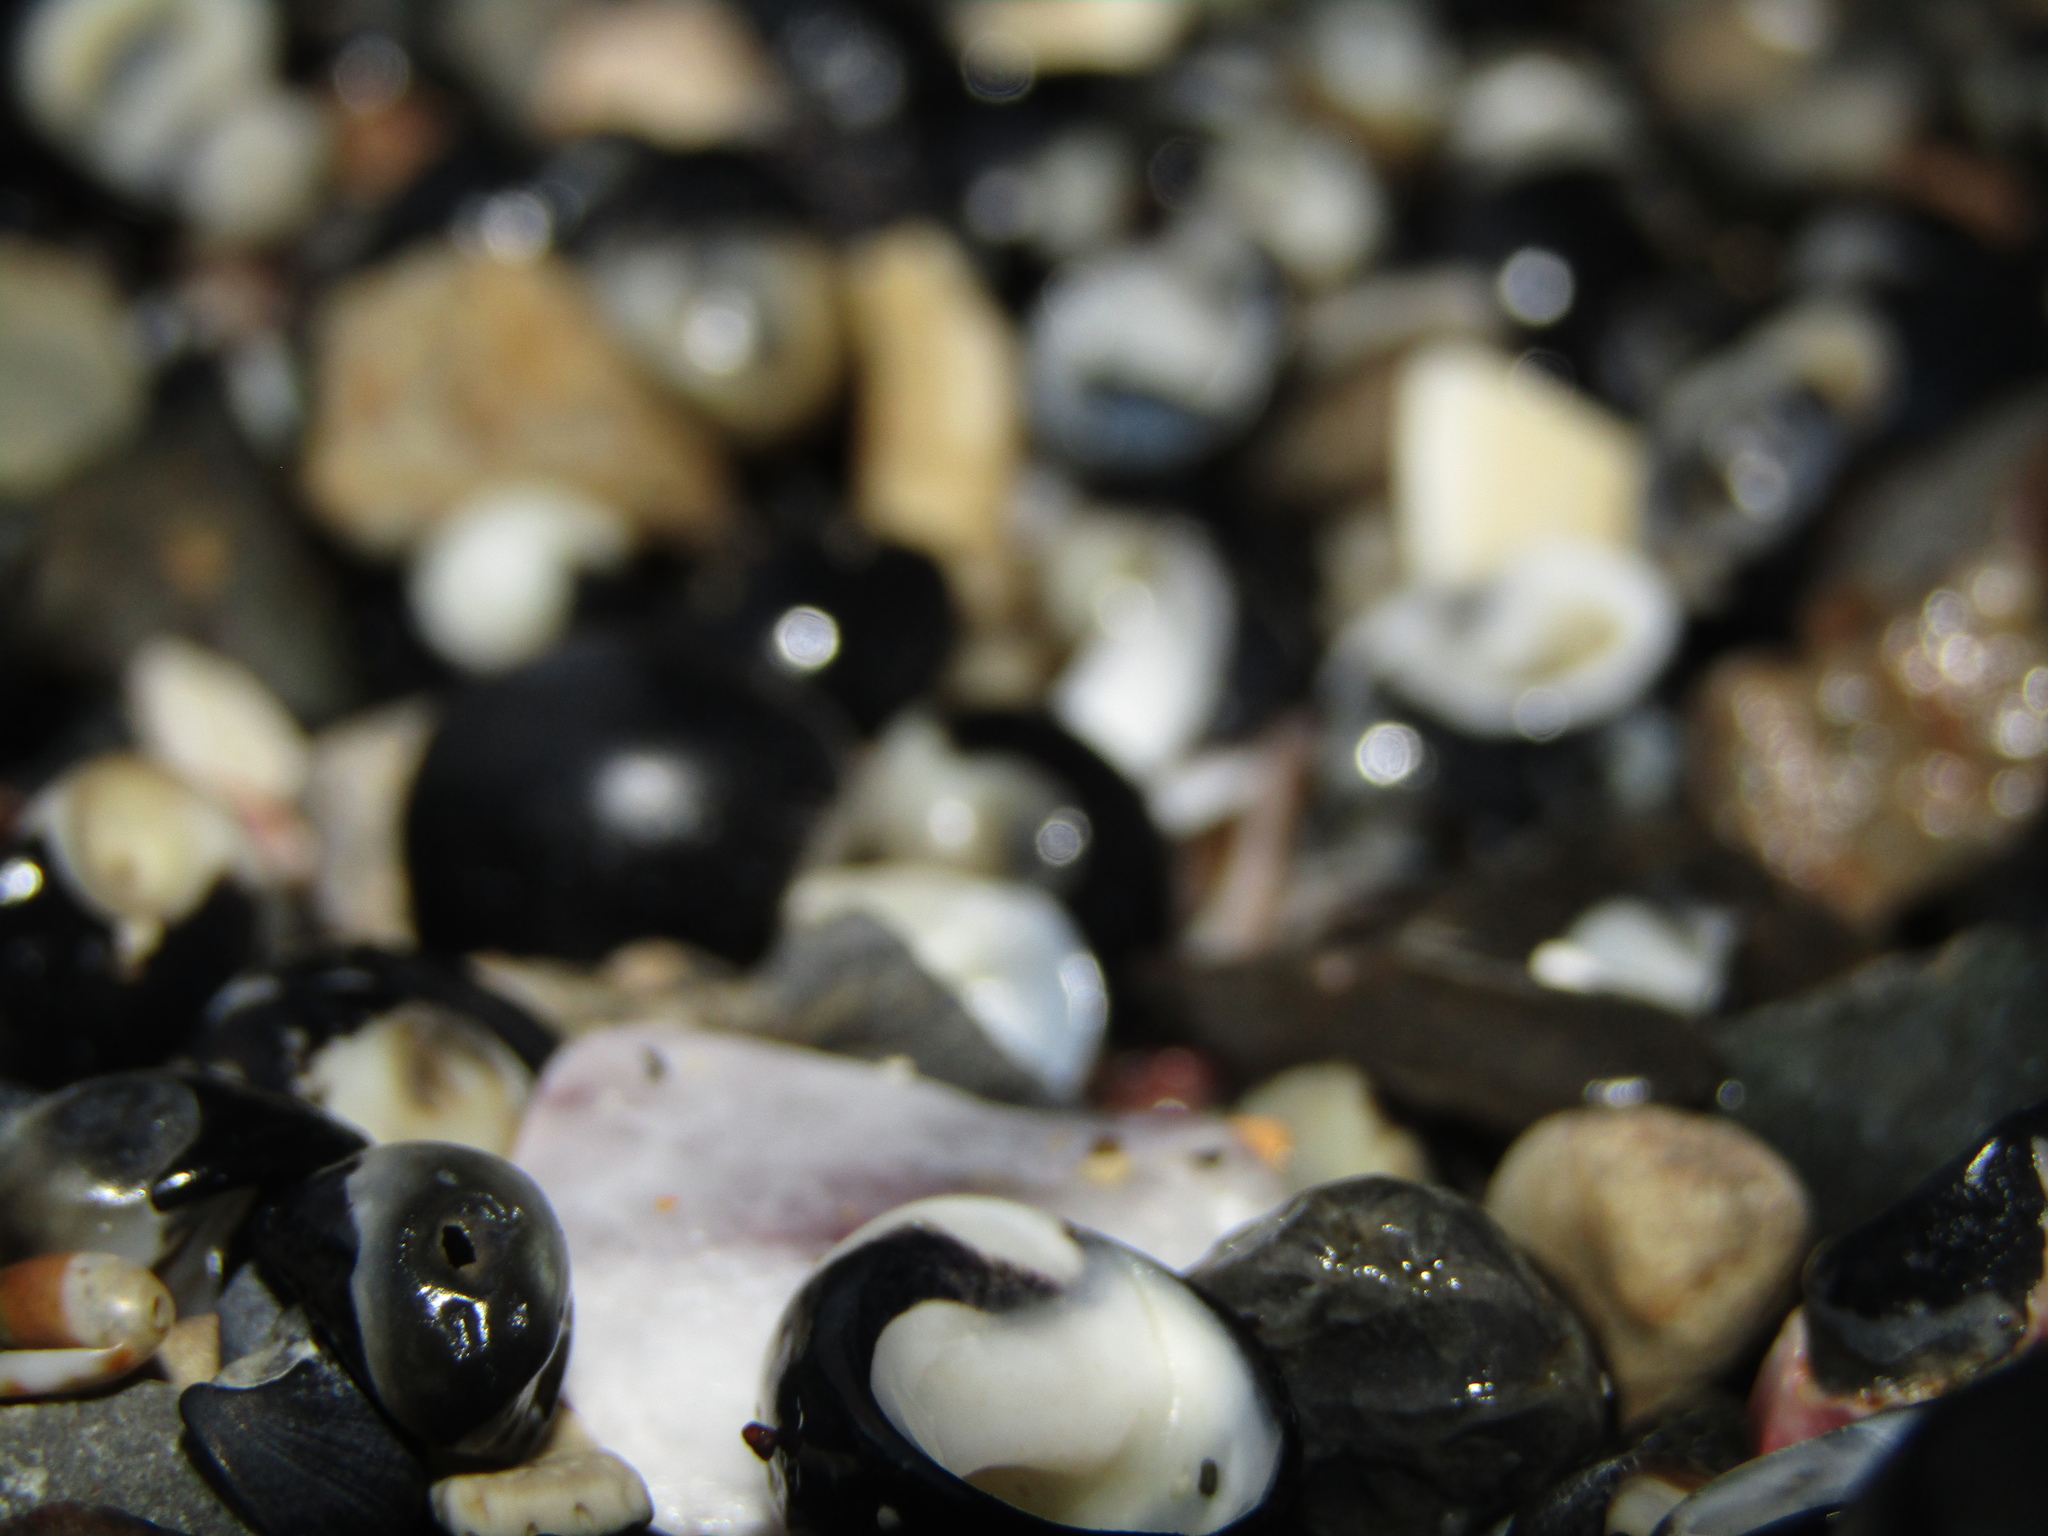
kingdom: Animalia
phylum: Mollusca
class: Gastropoda
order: Cycloneritida
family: Neritidae
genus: Nerita
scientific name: Nerita melanotragus
